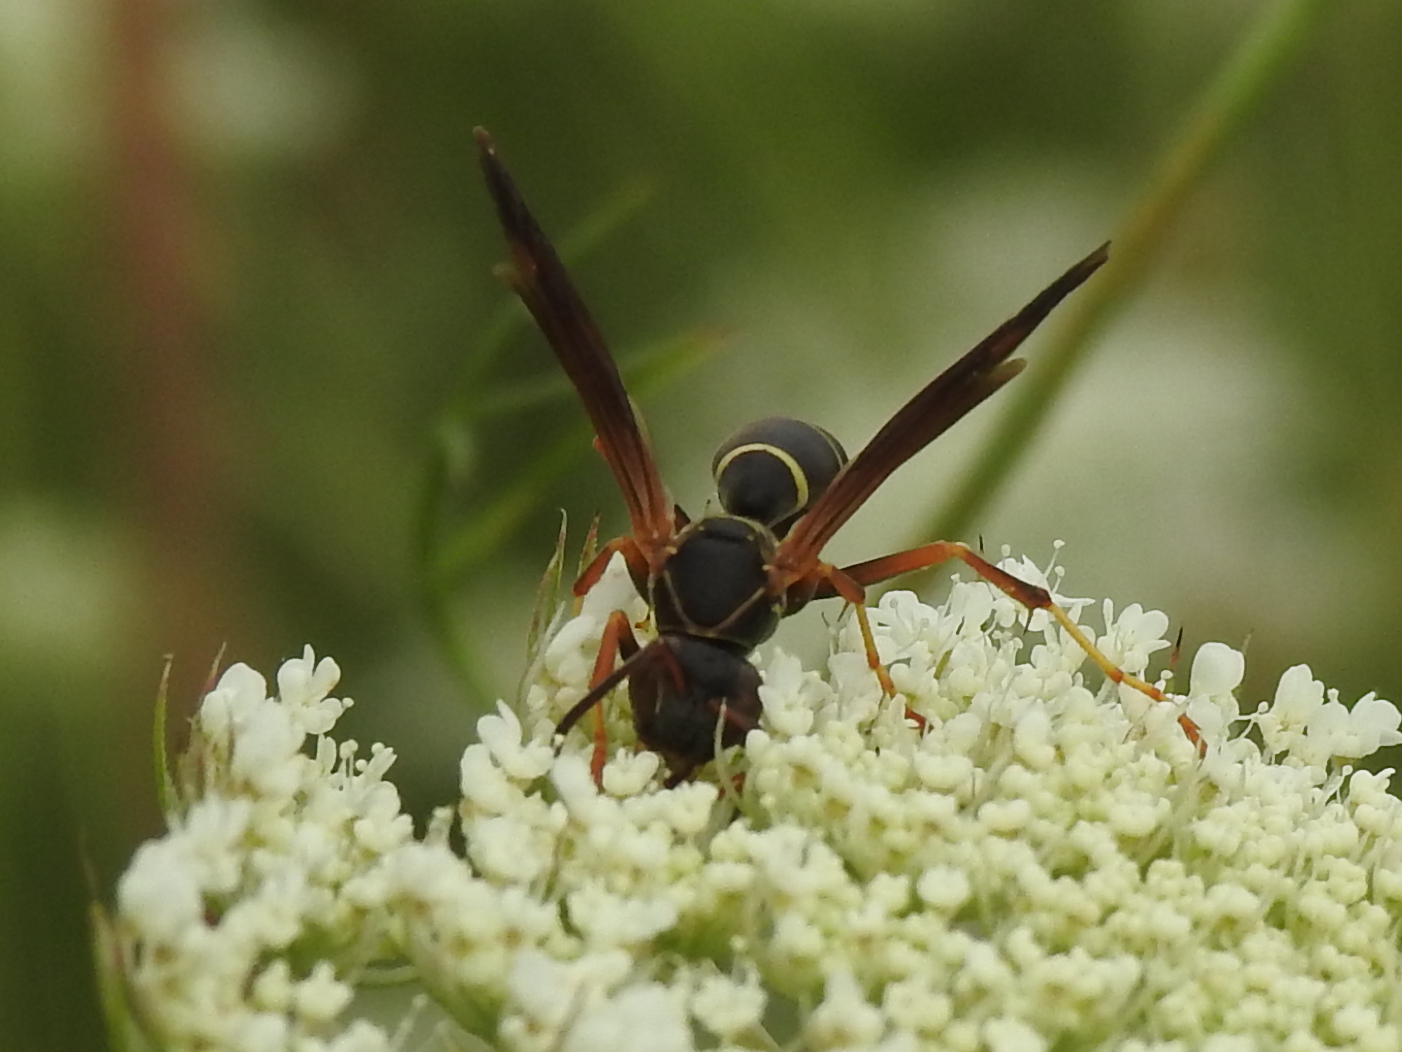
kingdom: Animalia
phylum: Arthropoda
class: Insecta
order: Hymenoptera
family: Eumenidae
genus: Polistes
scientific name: Polistes fuscatus
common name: Dark paper wasp
